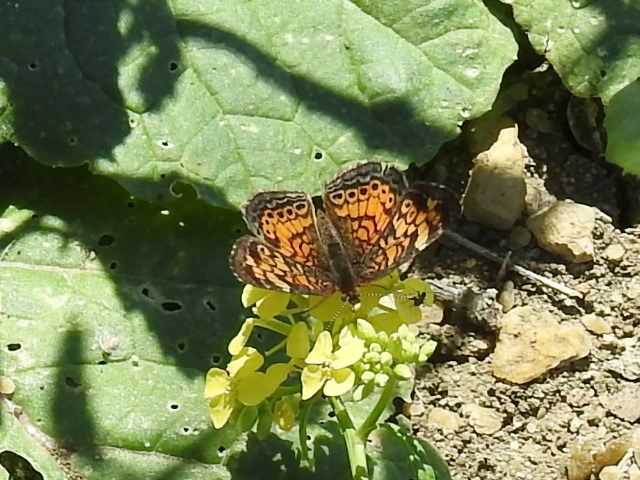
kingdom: Animalia
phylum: Arthropoda
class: Insecta
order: Lepidoptera
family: Nymphalidae
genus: Phyciodes
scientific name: Phyciodes tharos
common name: Pearl crescent
